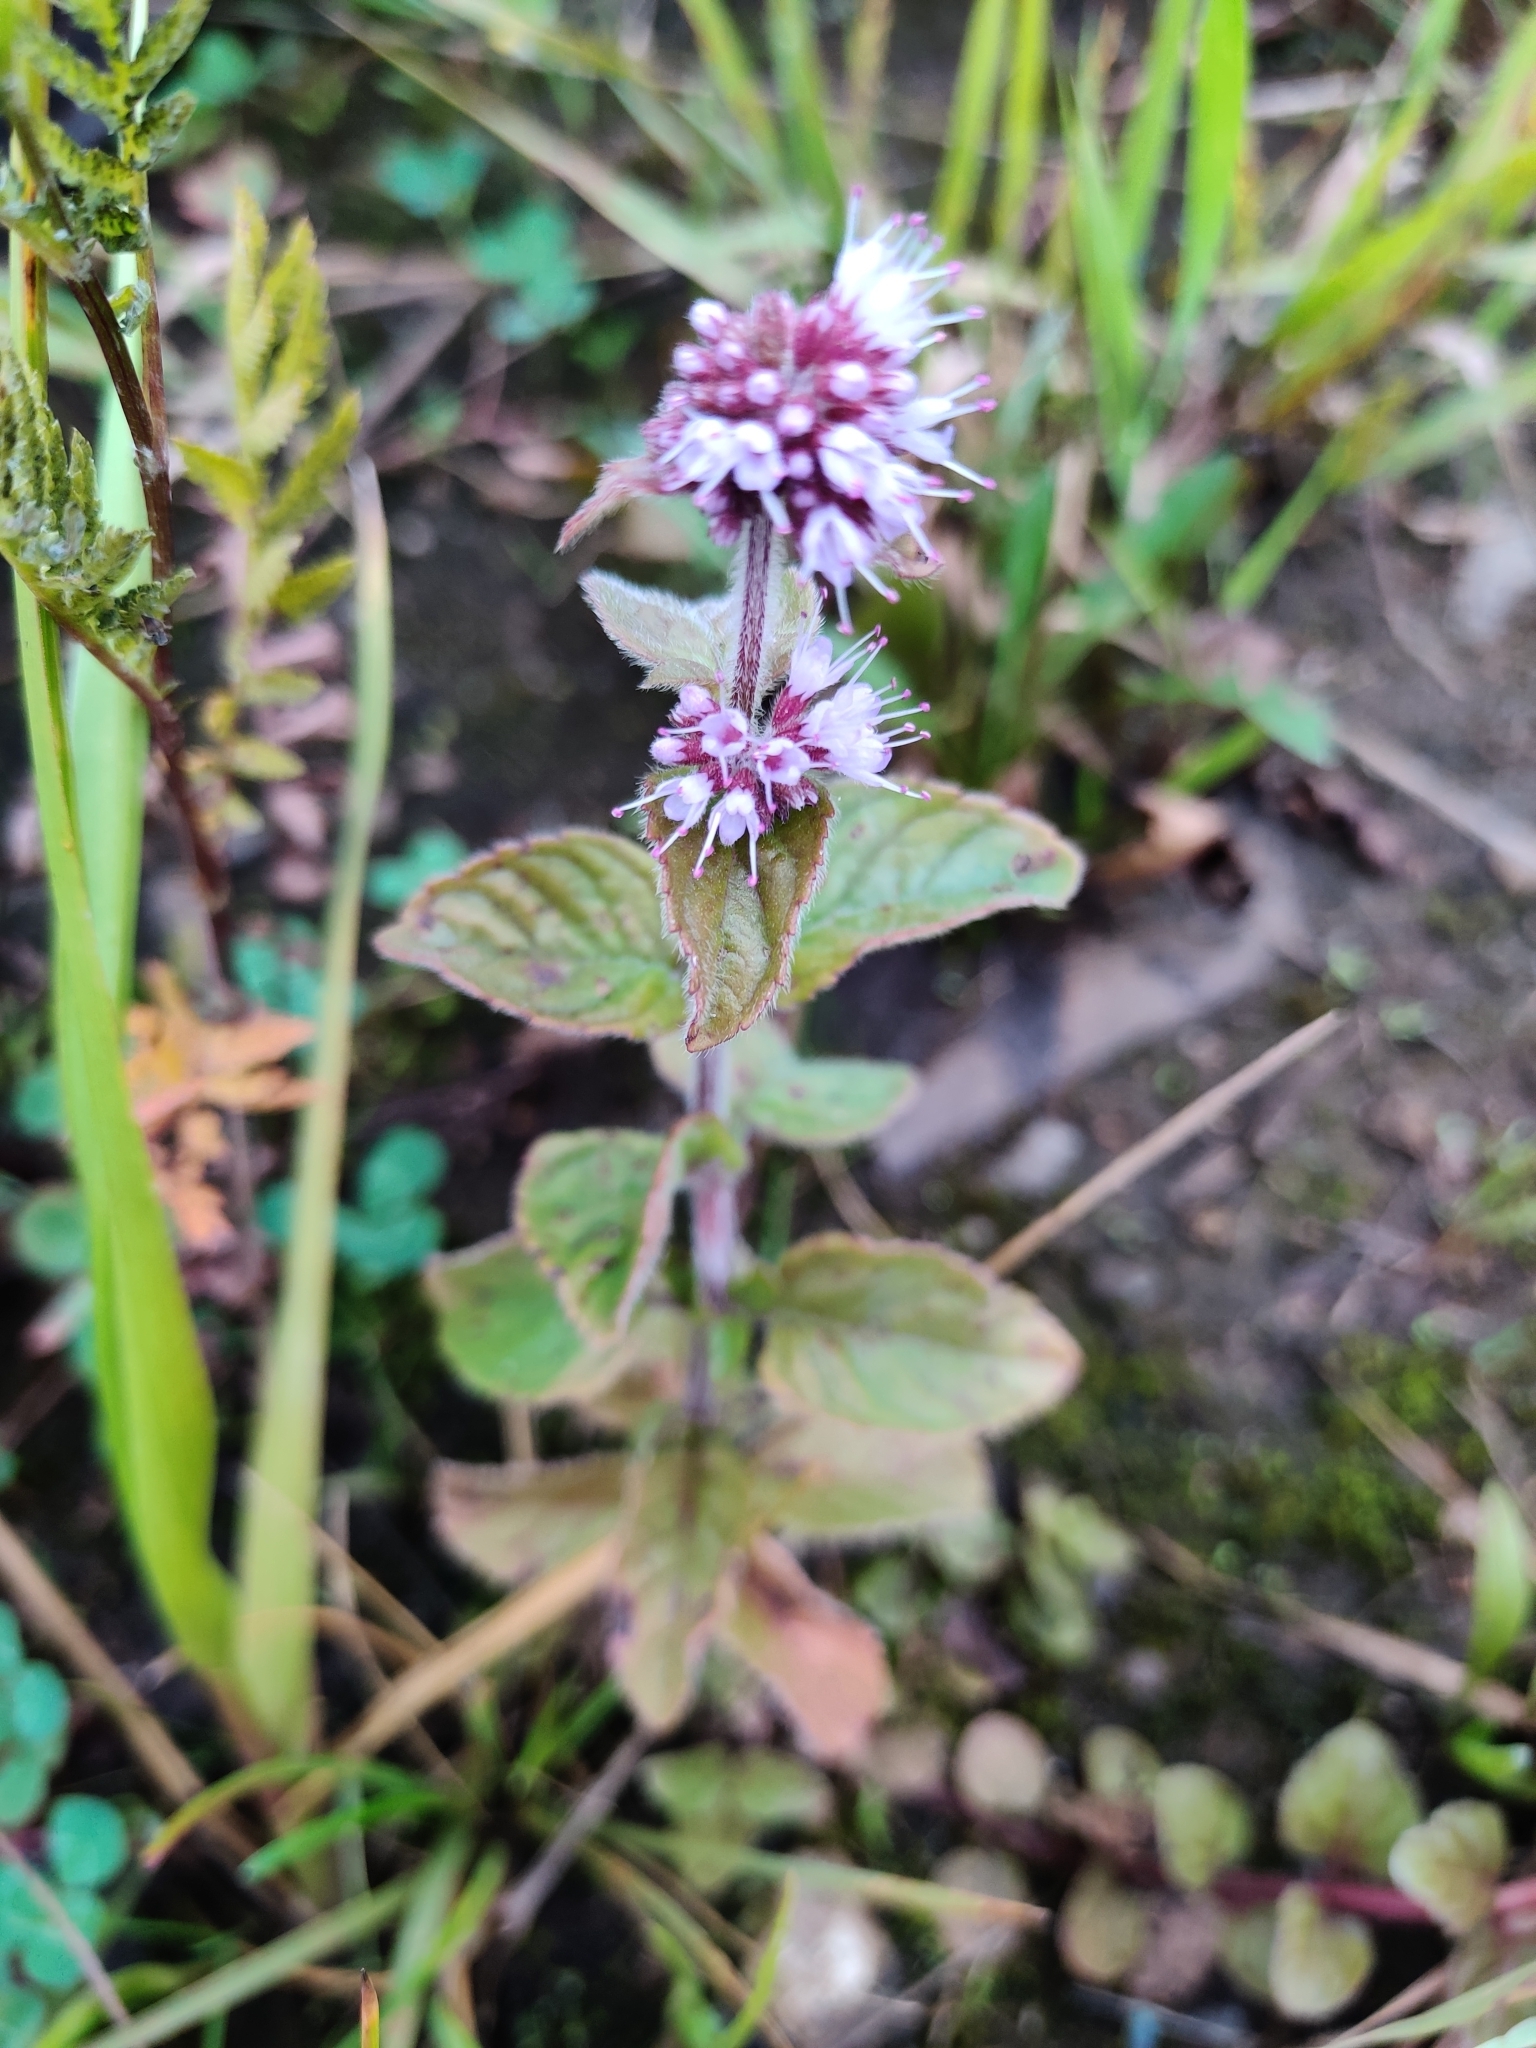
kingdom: Plantae
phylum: Tracheophyta
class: Magnoliopsida
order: Lamiales
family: Lamiaceae
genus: Mentha
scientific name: Mentha aquatica
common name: Water mint
